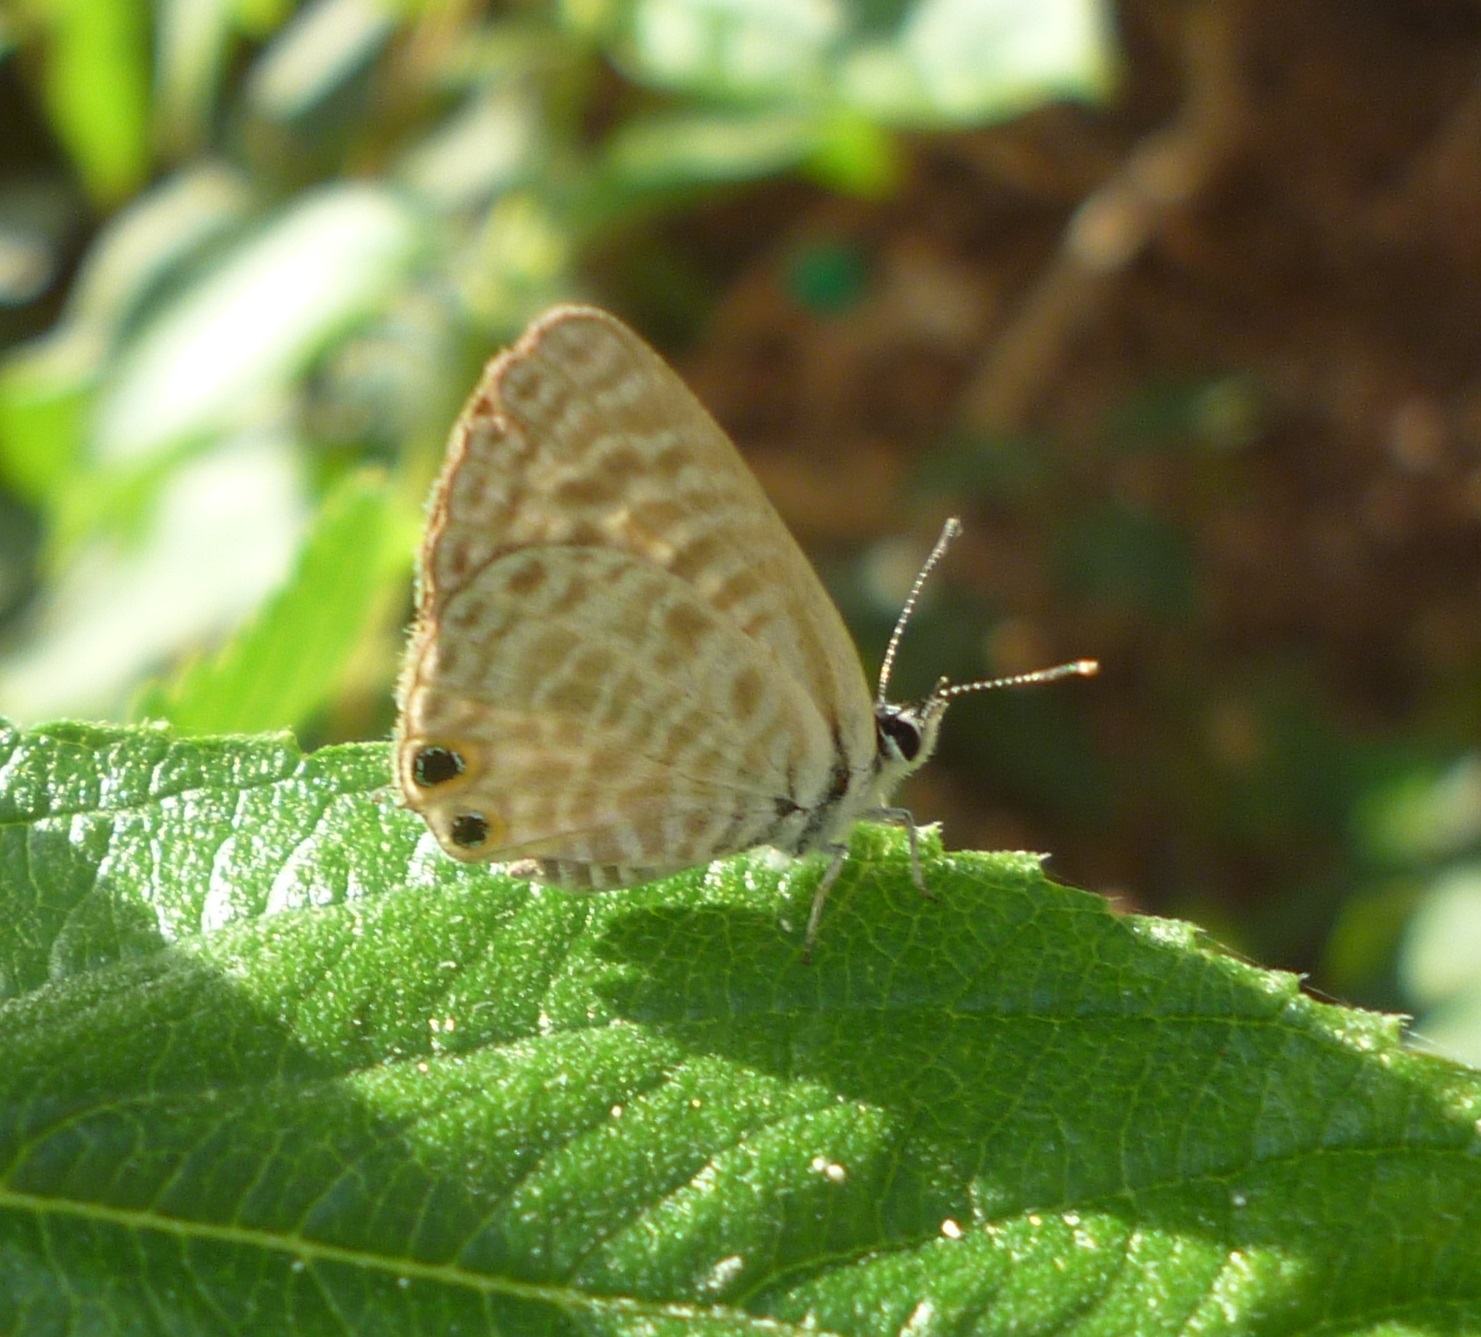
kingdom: Animalia
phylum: Arthropoda
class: Insecta
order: Lepidoptera
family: Lycaenidae
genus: Leptotes
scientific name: Leptotes pirithous
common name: Lang's short-tailed blue
